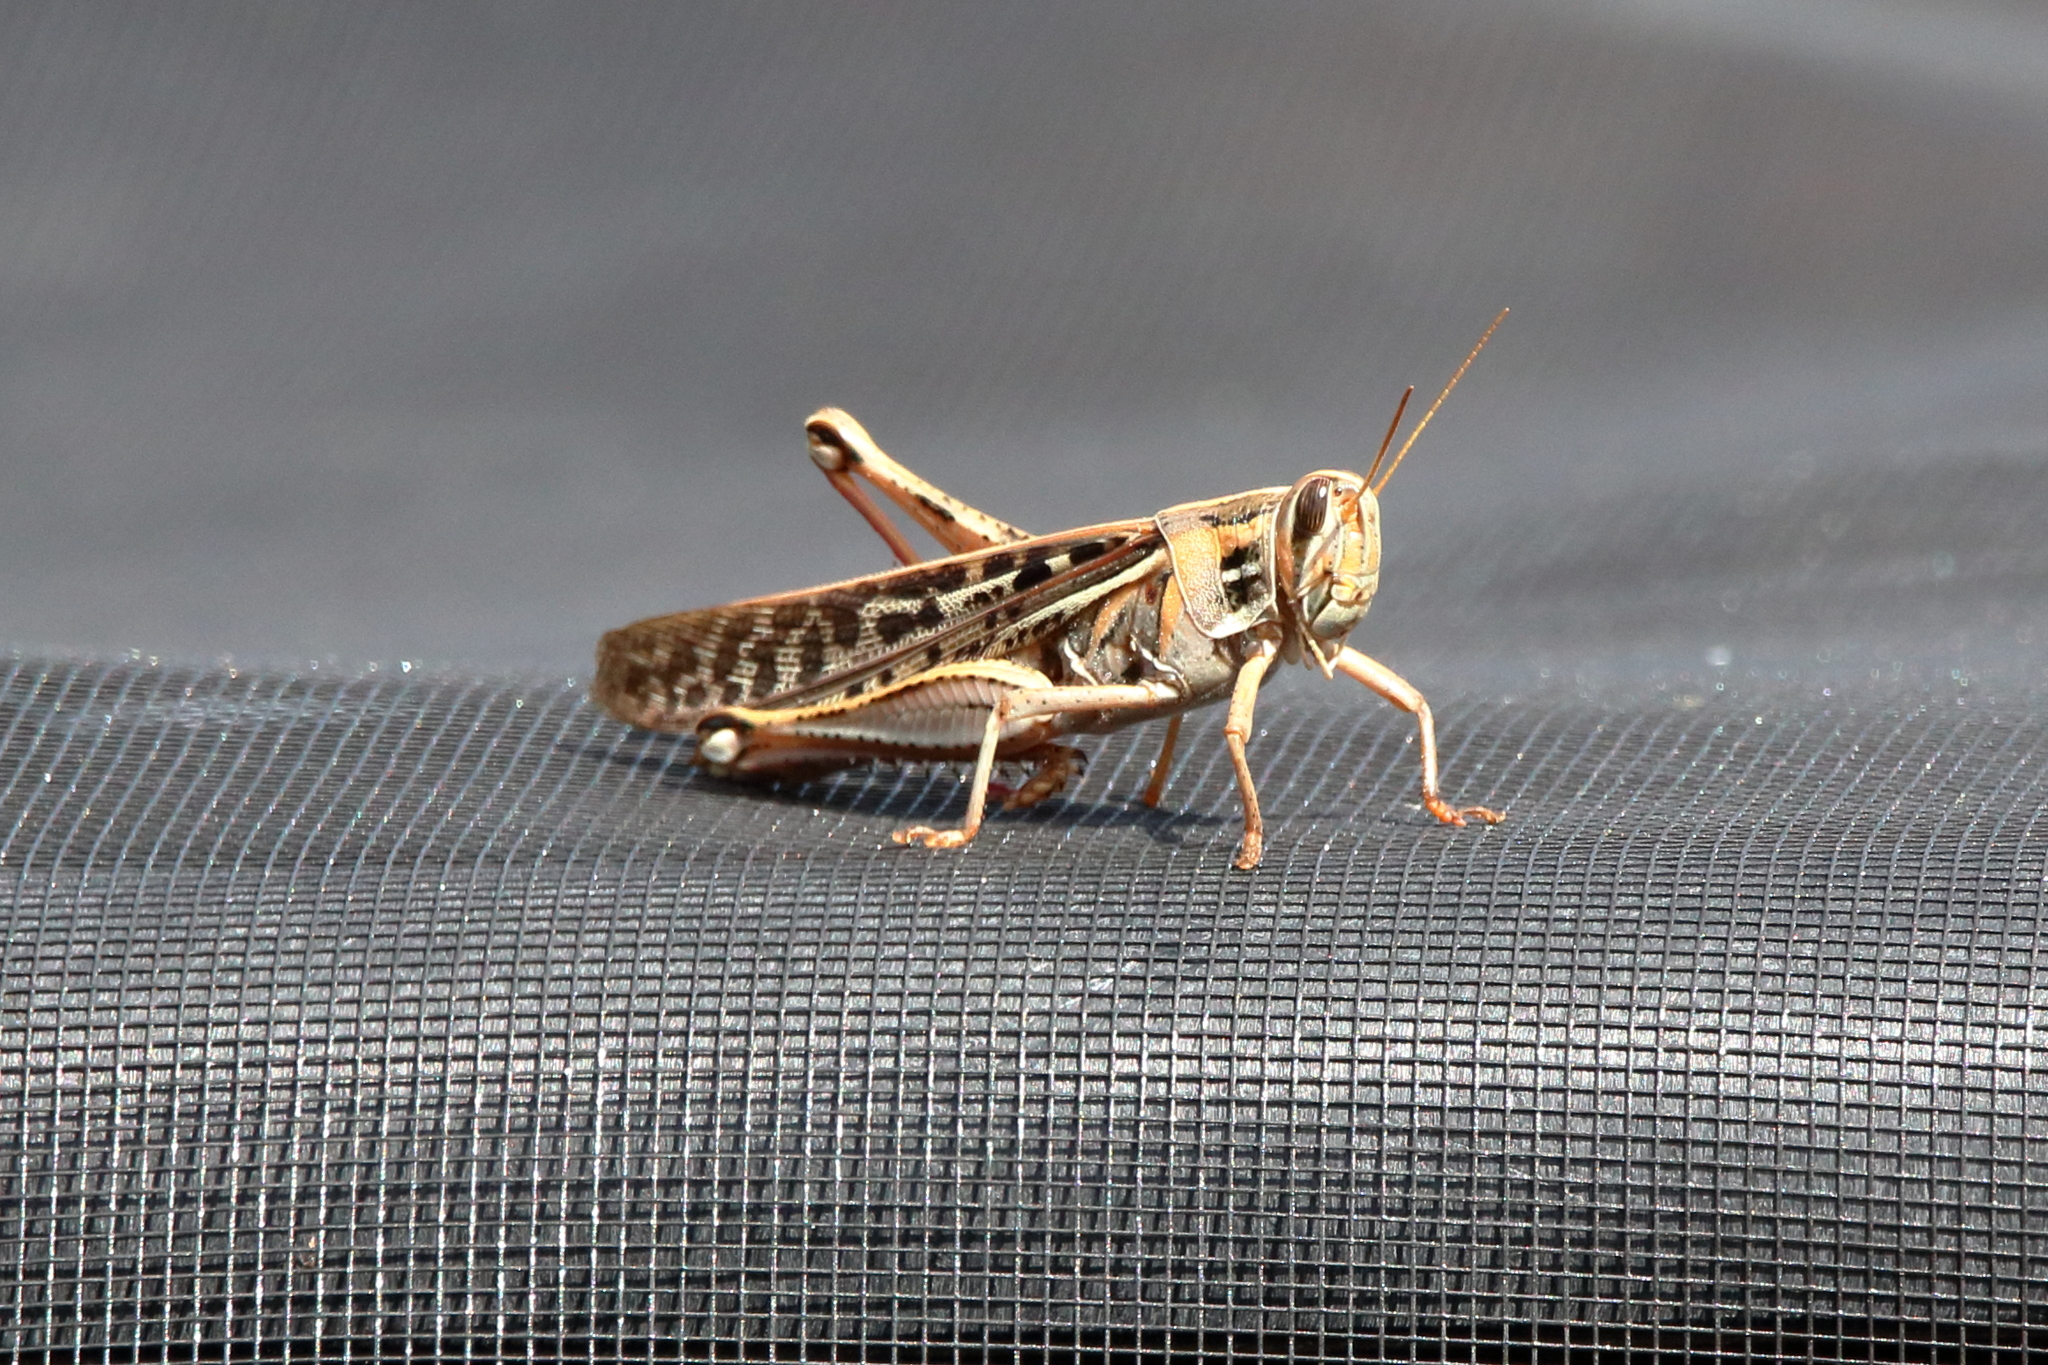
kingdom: Animalia
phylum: Arthropoda
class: Insecta
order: Orthoptera
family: Acrididae
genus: Schistocerca
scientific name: Schistocerca americana
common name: American bird locust
